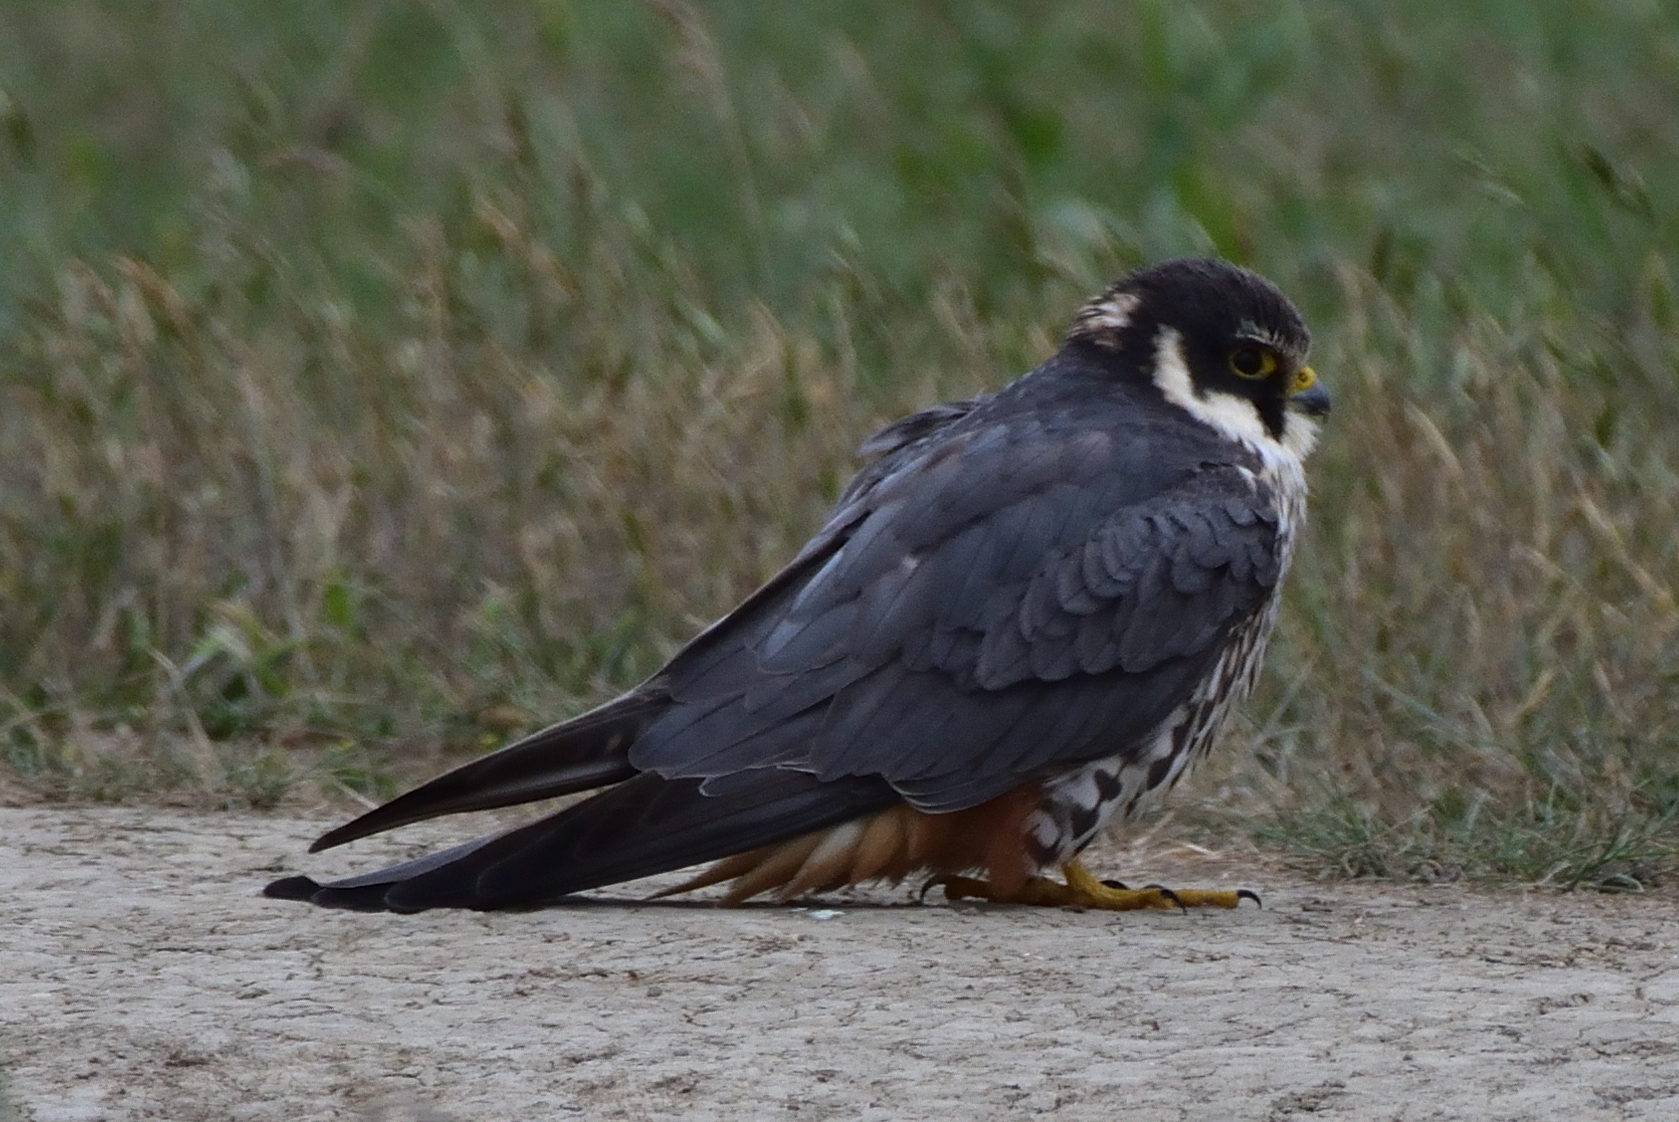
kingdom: Animalia
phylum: Chordata
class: Aves
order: Falconiformes
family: Falconidae
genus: Falco
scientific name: Falco subbuteo
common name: Eurasian hobby
